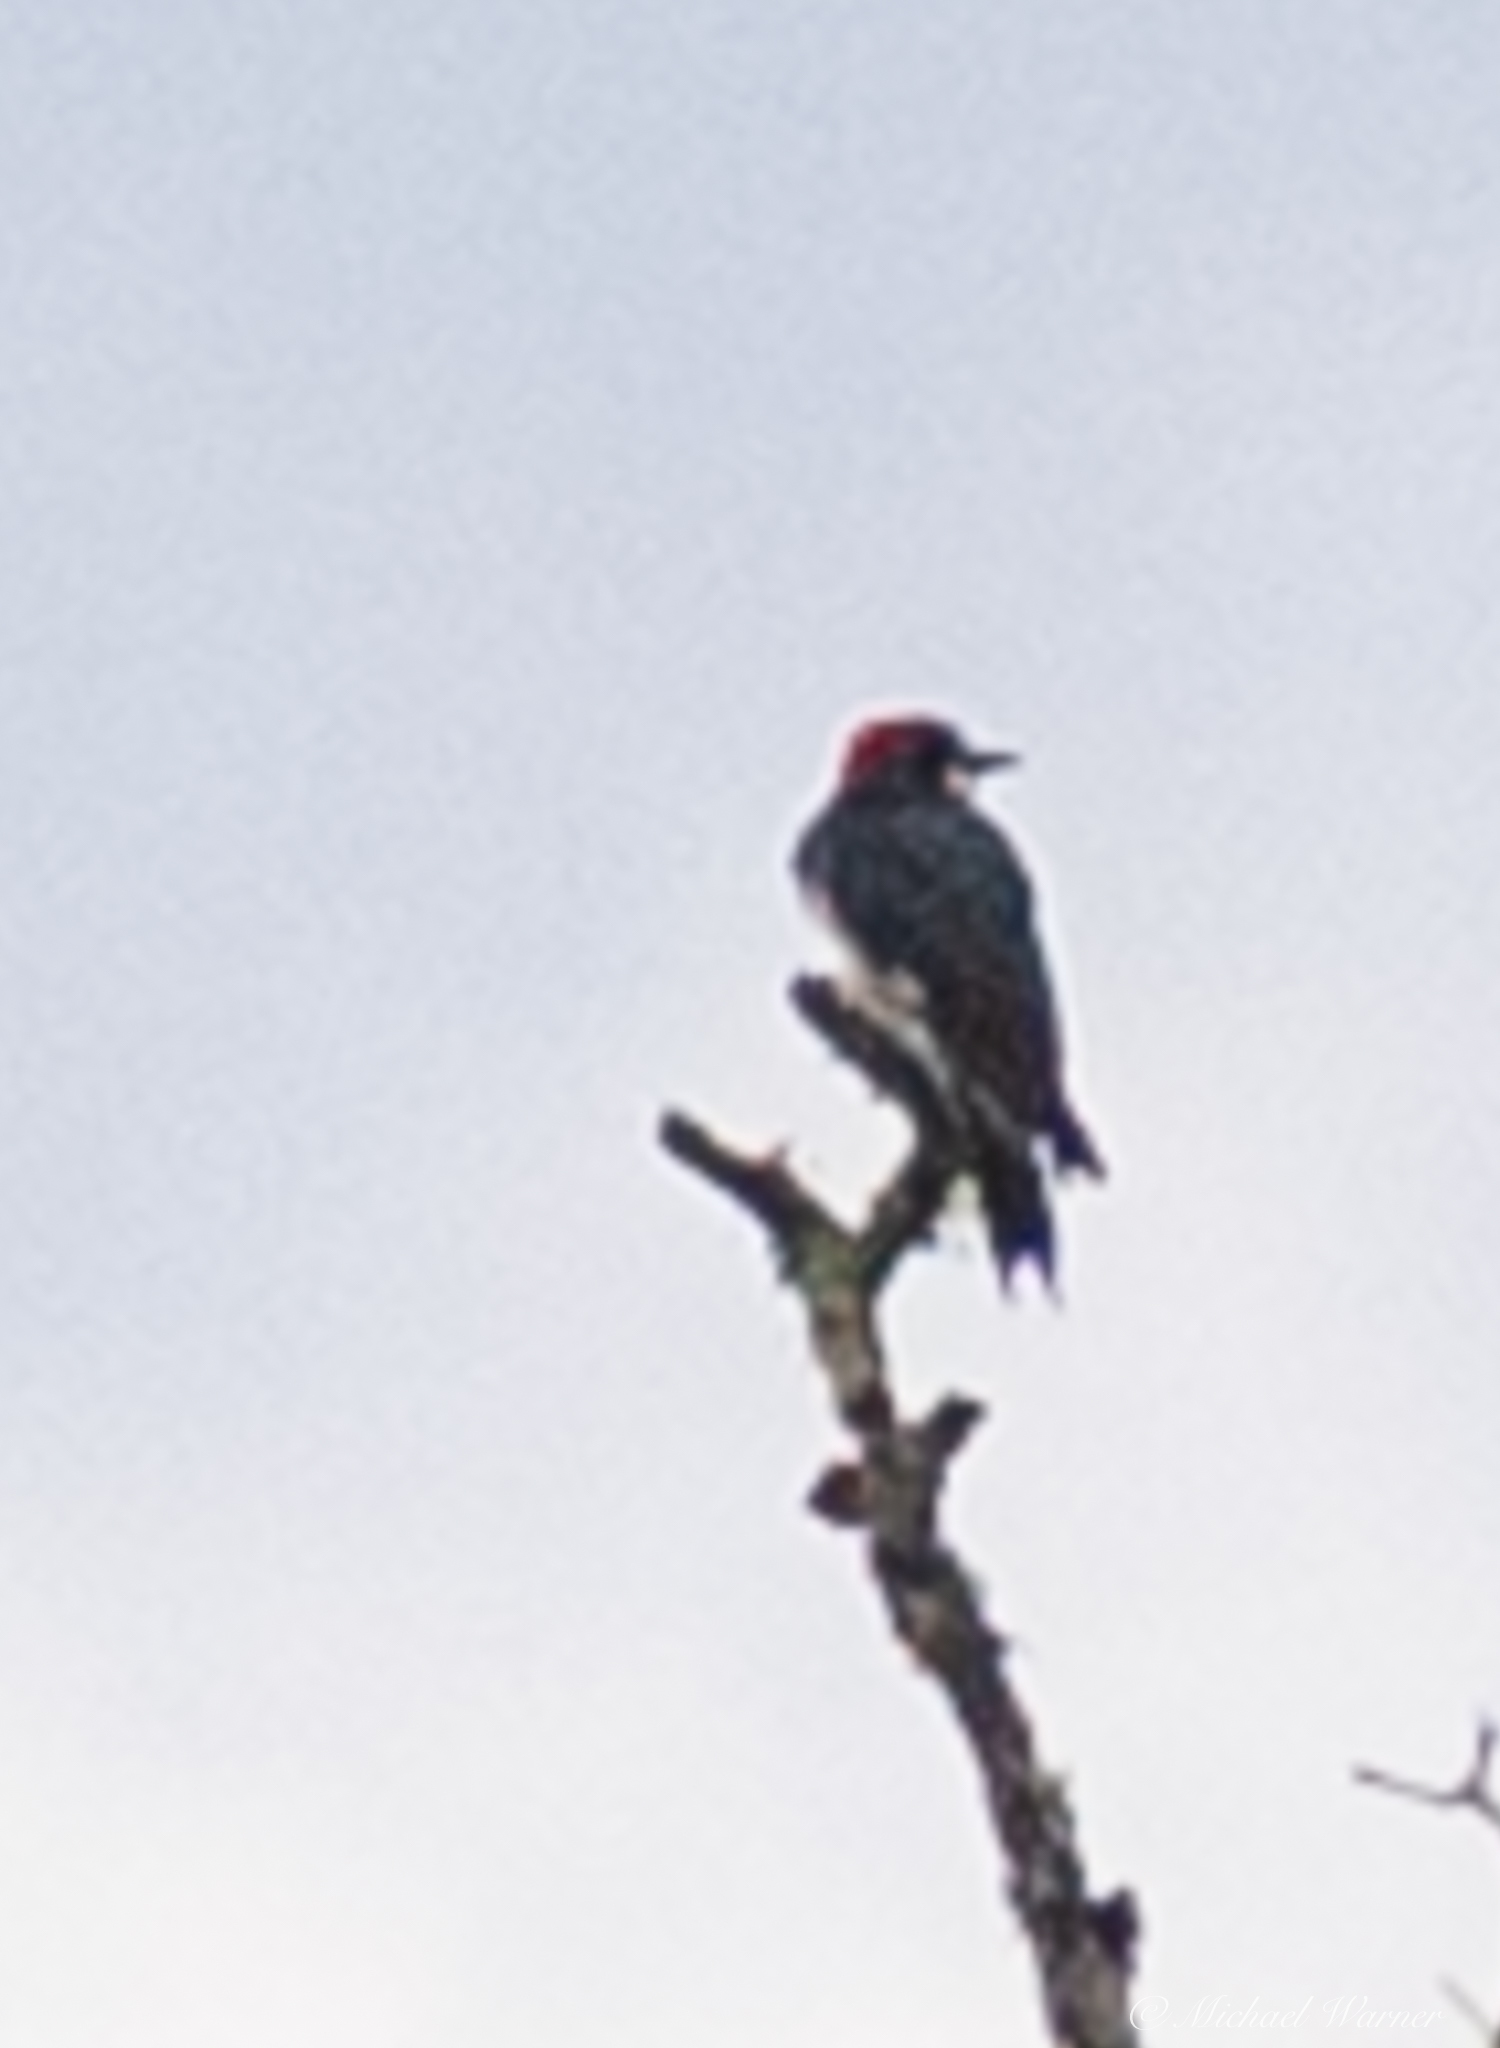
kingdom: Animalia
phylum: Chordata
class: Aves
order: Piciformes
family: Picidae
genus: Melanerpes
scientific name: Melanerpes formicivorus
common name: Acorn woodpecker
